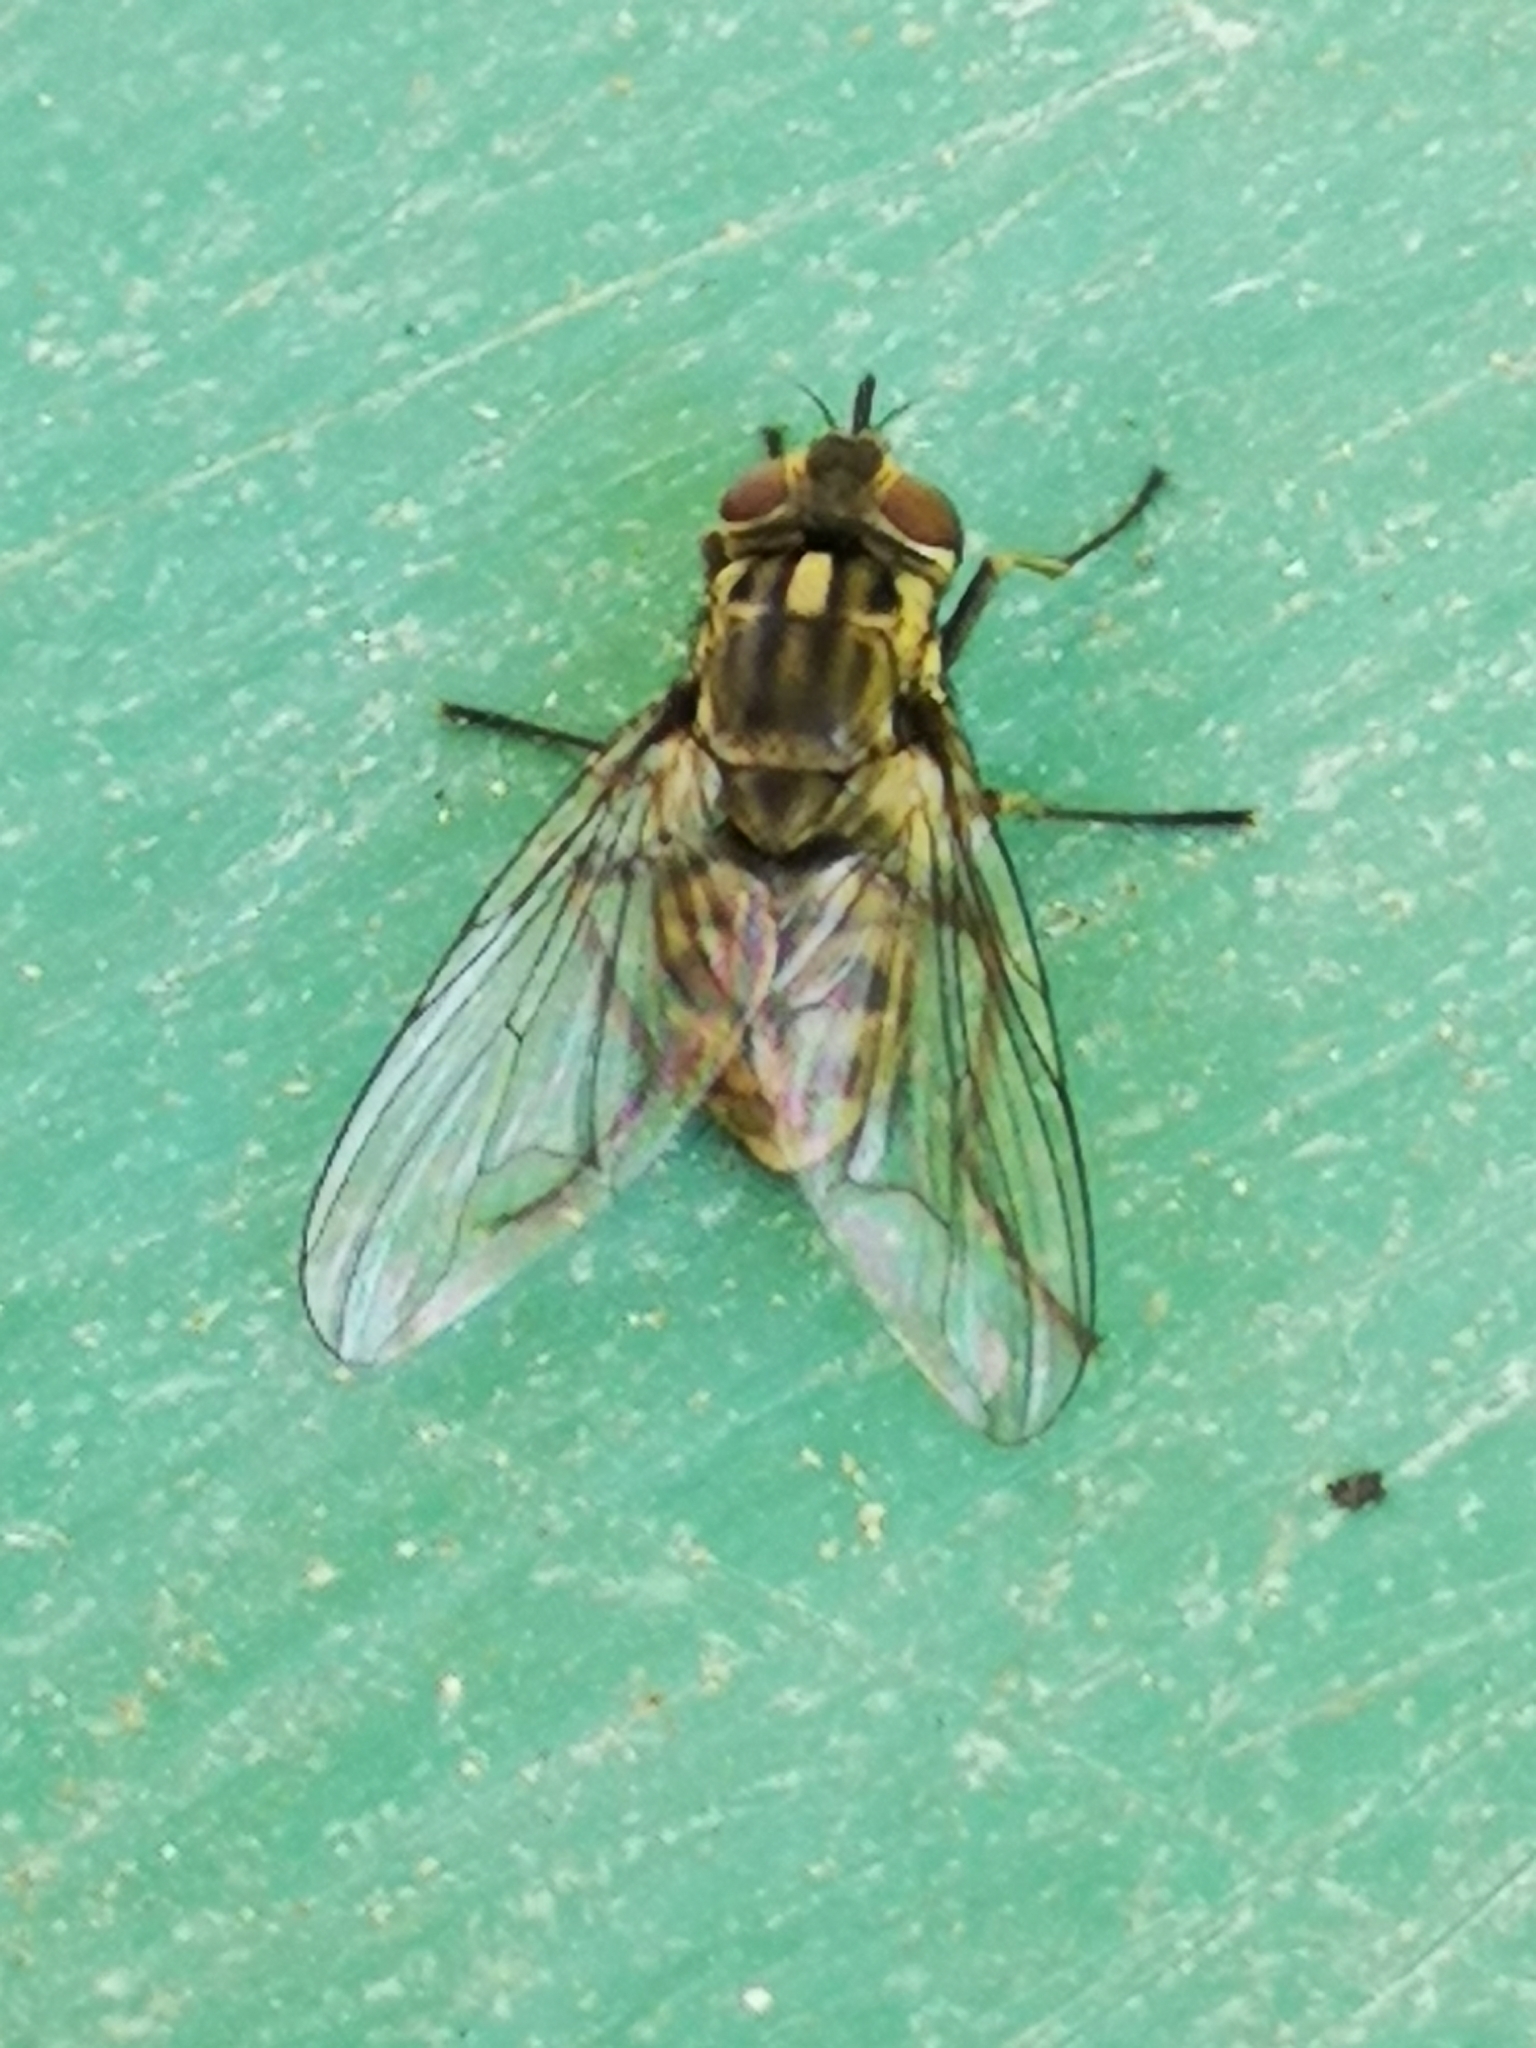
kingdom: Animalia
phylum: Arthropoda
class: Insecta
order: Diptera
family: Muscidae
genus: Stomoxys
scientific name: Stomoxys calcitrans
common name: Stable fly
